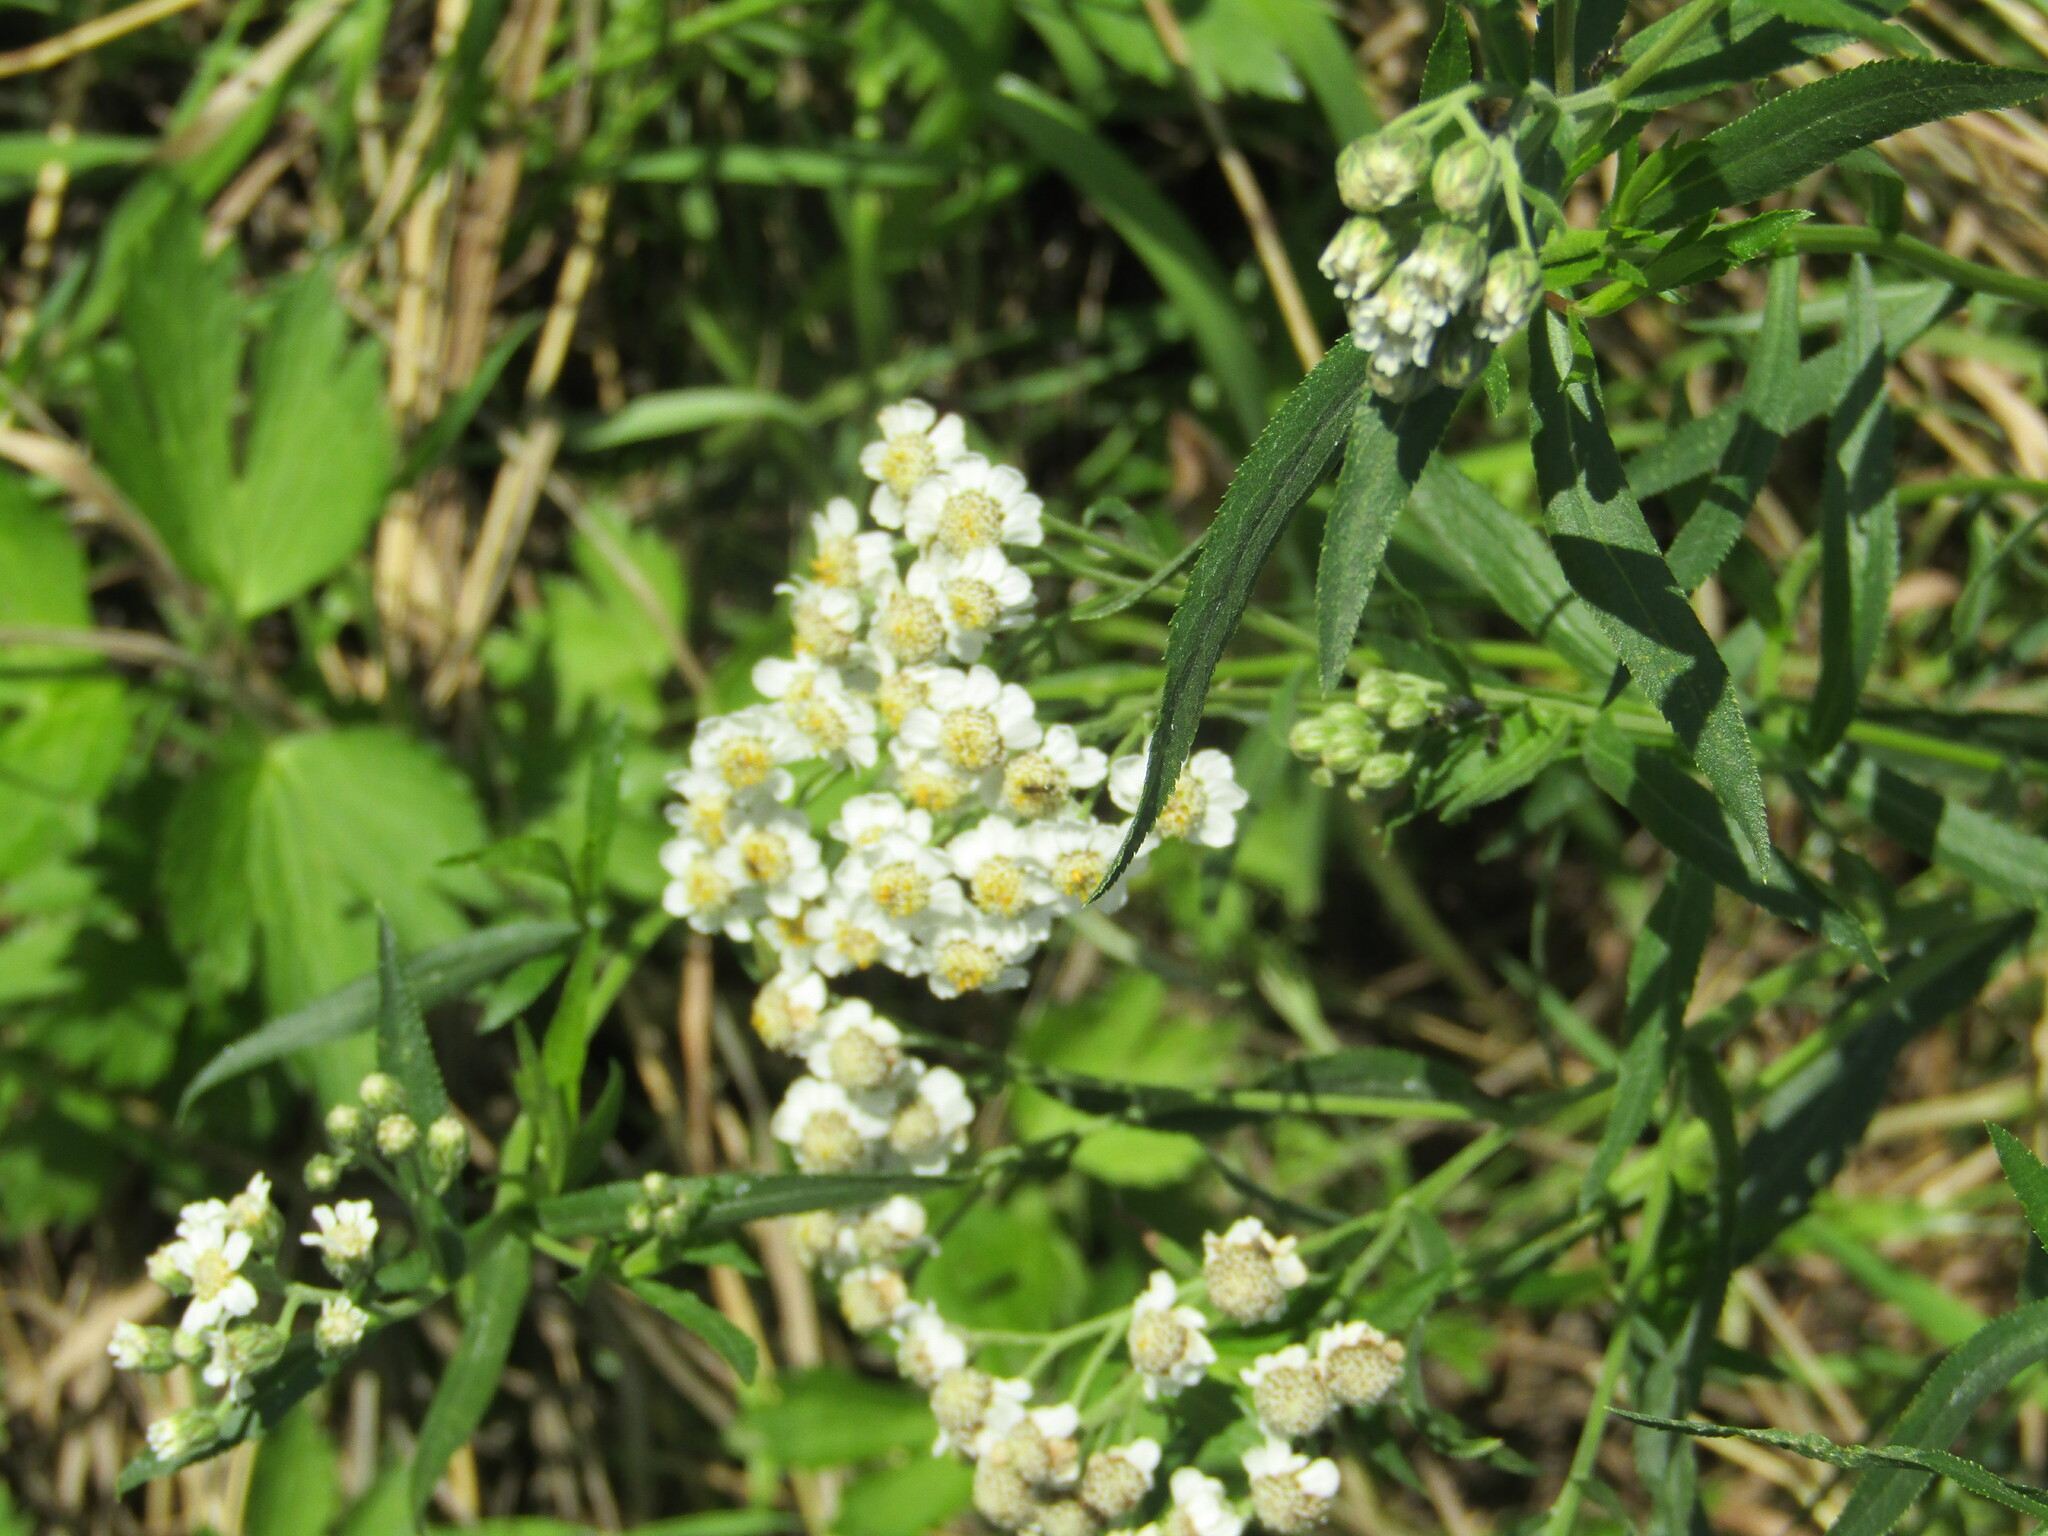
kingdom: Plantae
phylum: Tracheophyta
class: Magnoliopsida
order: Asterales
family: Asteraceae
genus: Achillea
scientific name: Achillea salicifolia
